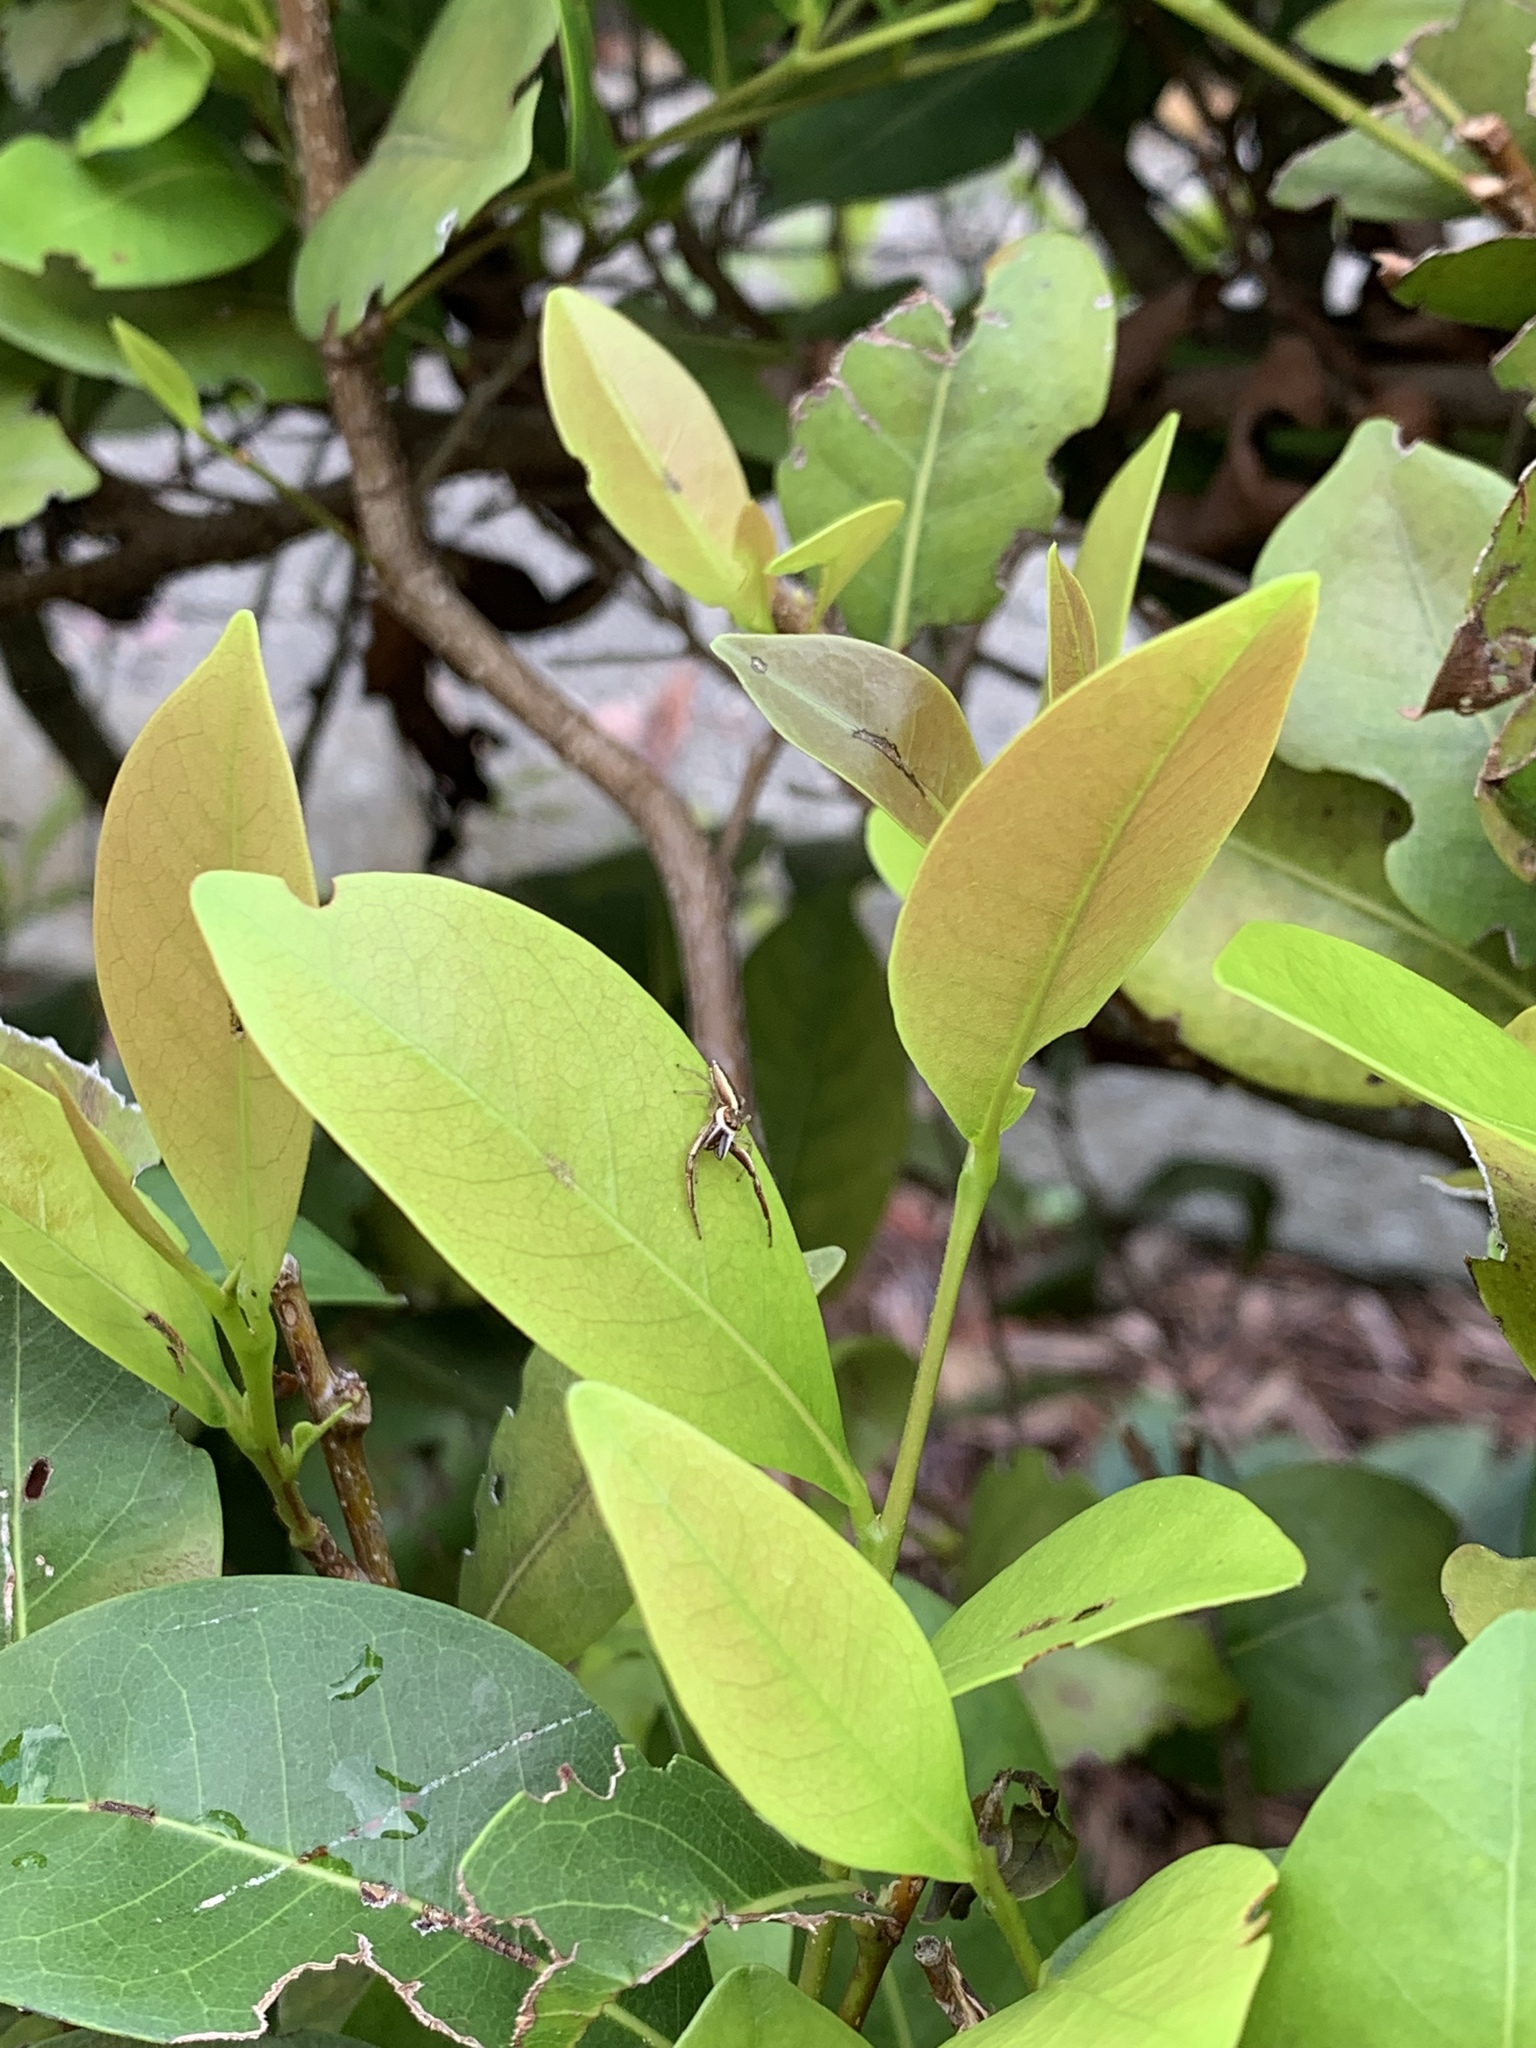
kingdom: Animalia
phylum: Arthropoda
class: Arachnida
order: Araneae
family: Salticidae
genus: Hentzia
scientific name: Hentzia palmarum
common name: Common hentz jumping spider
